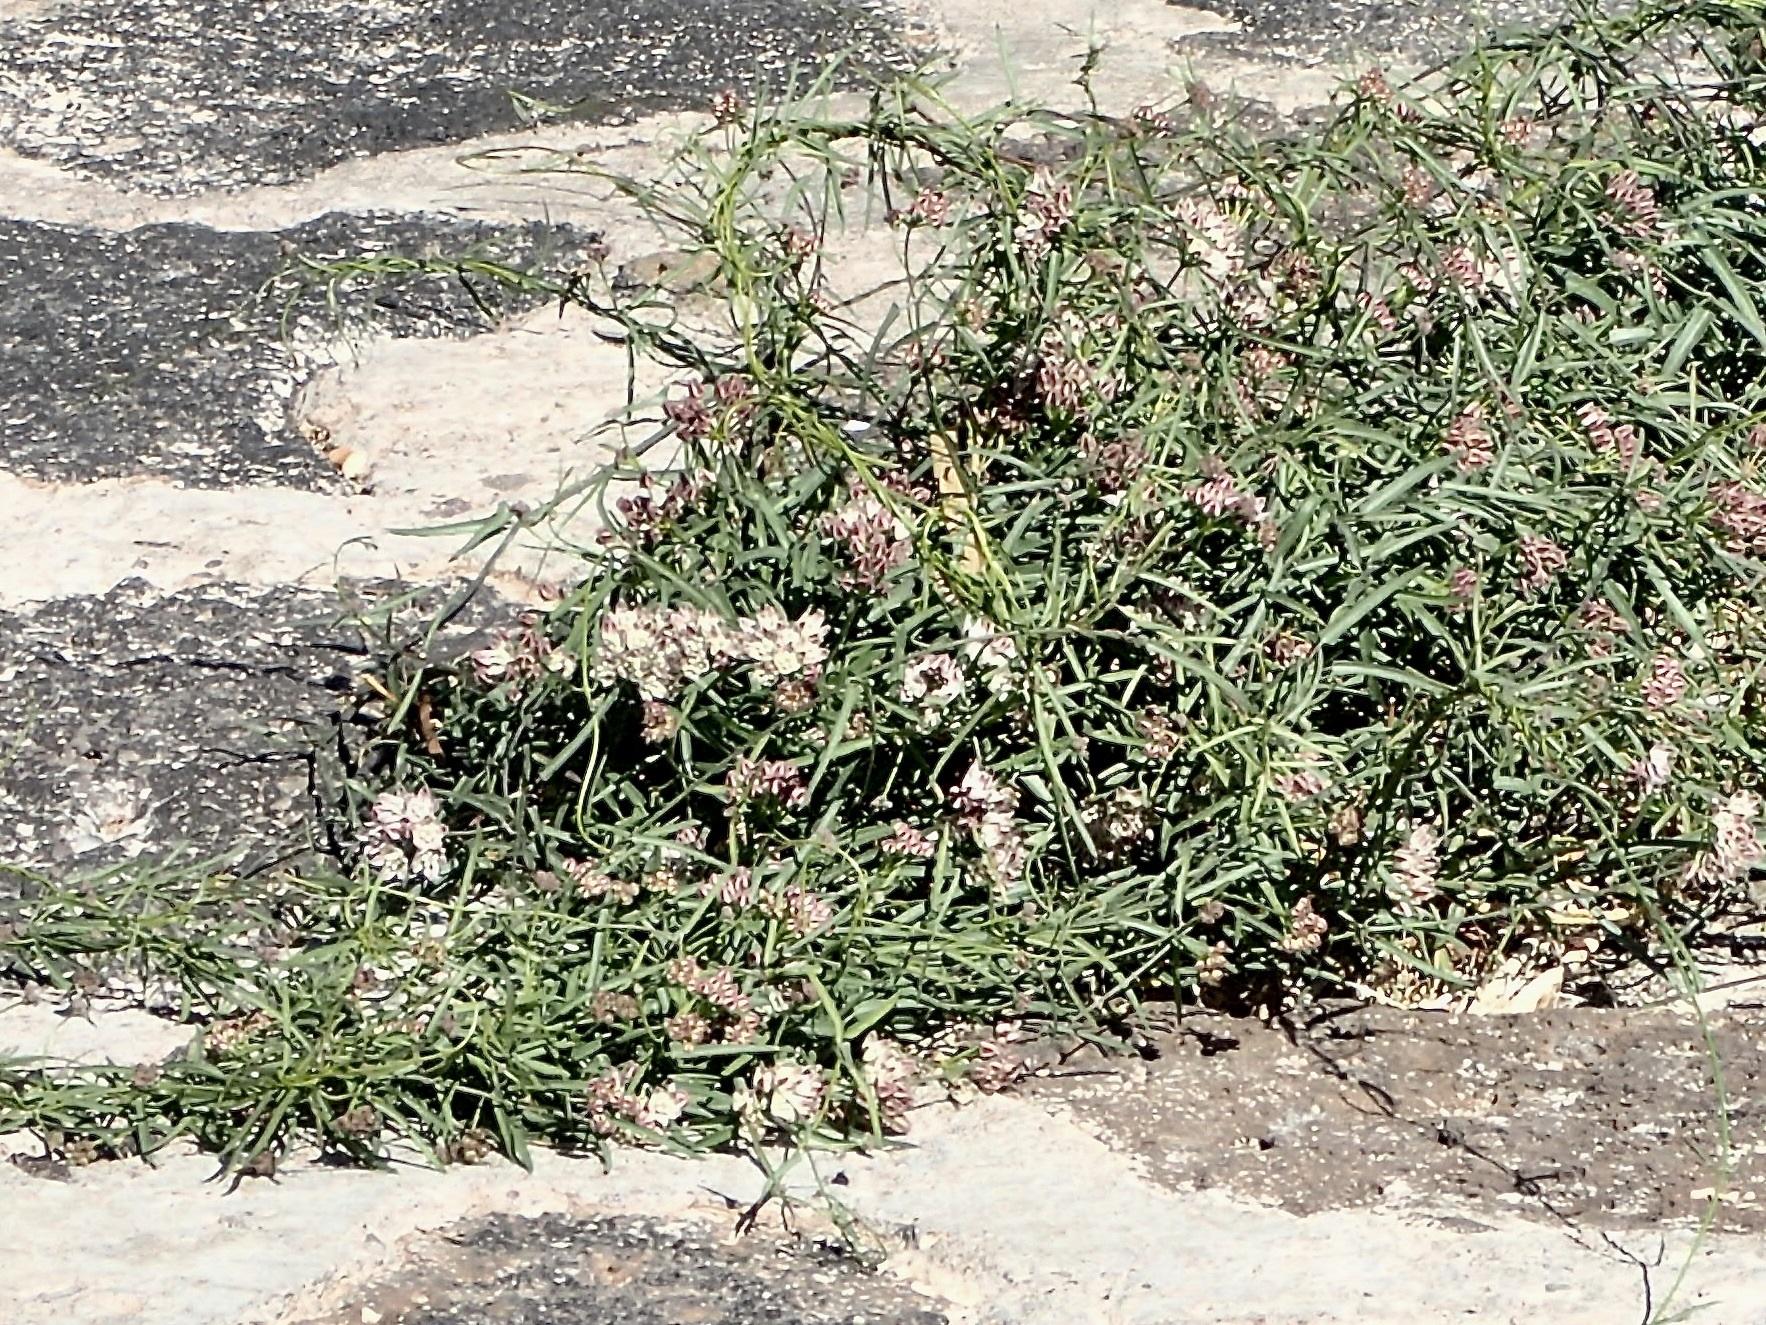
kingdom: Plantae
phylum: Tracheophyta
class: Magnoliopsida
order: Gentianales
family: Apocynaceae
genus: Funastrum
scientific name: Funastrum heterophyllum
